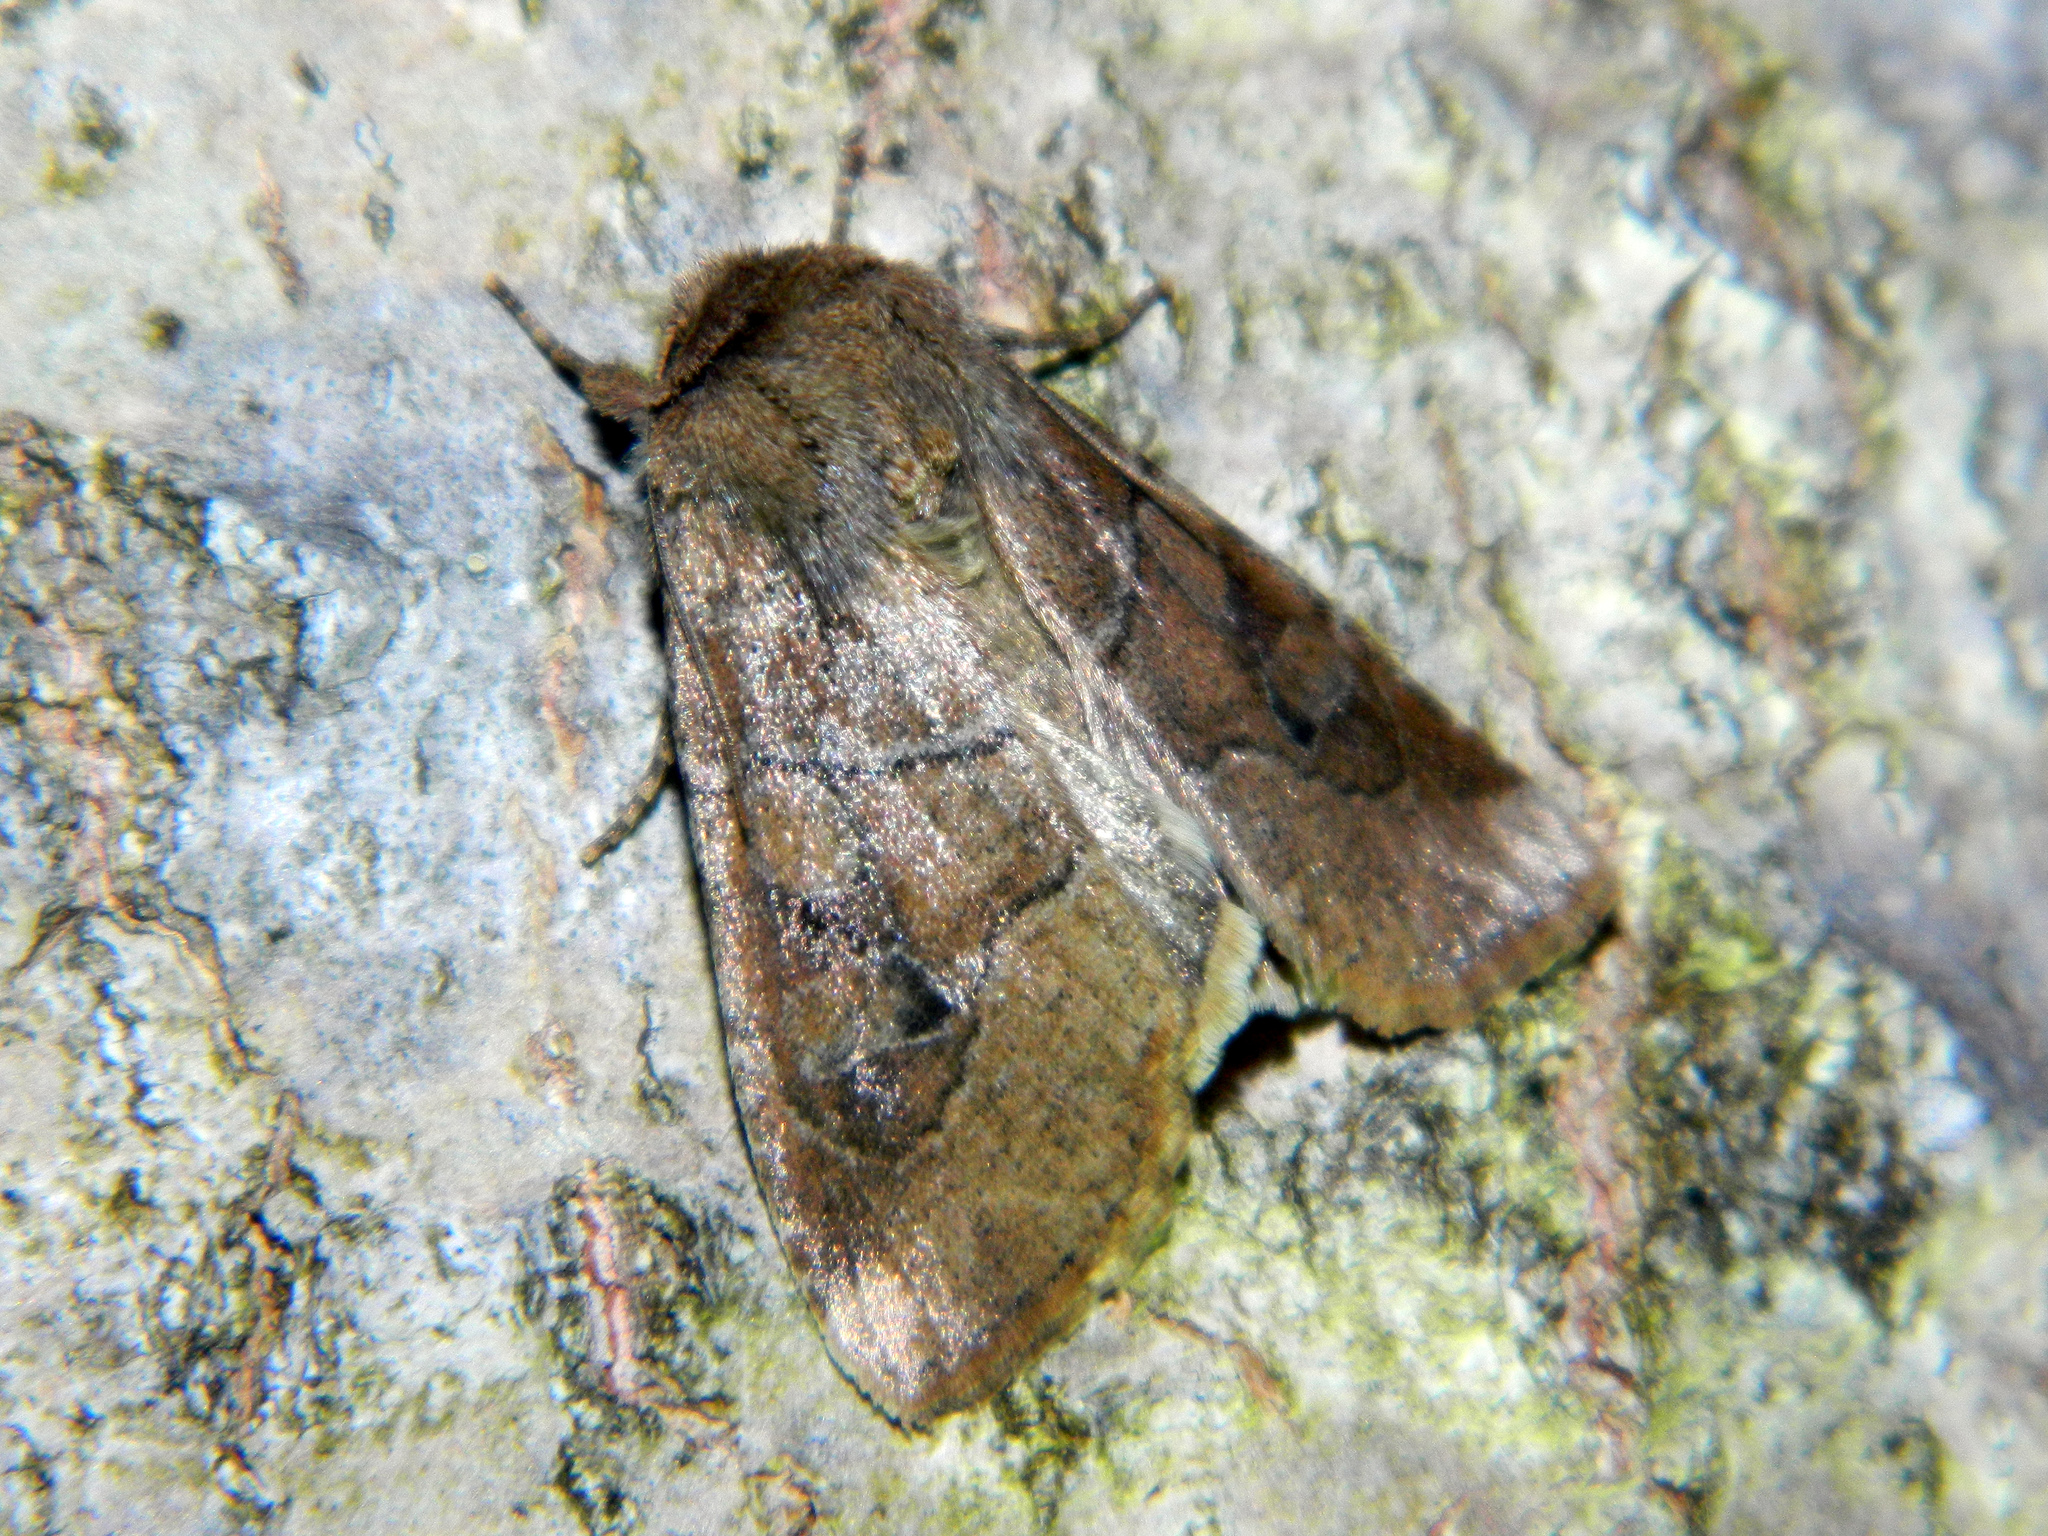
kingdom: Animalia
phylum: Arthropoda
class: Insecta
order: Lepidoptera
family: Noctuidae
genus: Crocigrapha
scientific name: Crocigrapha normani
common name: Norman's quaker
